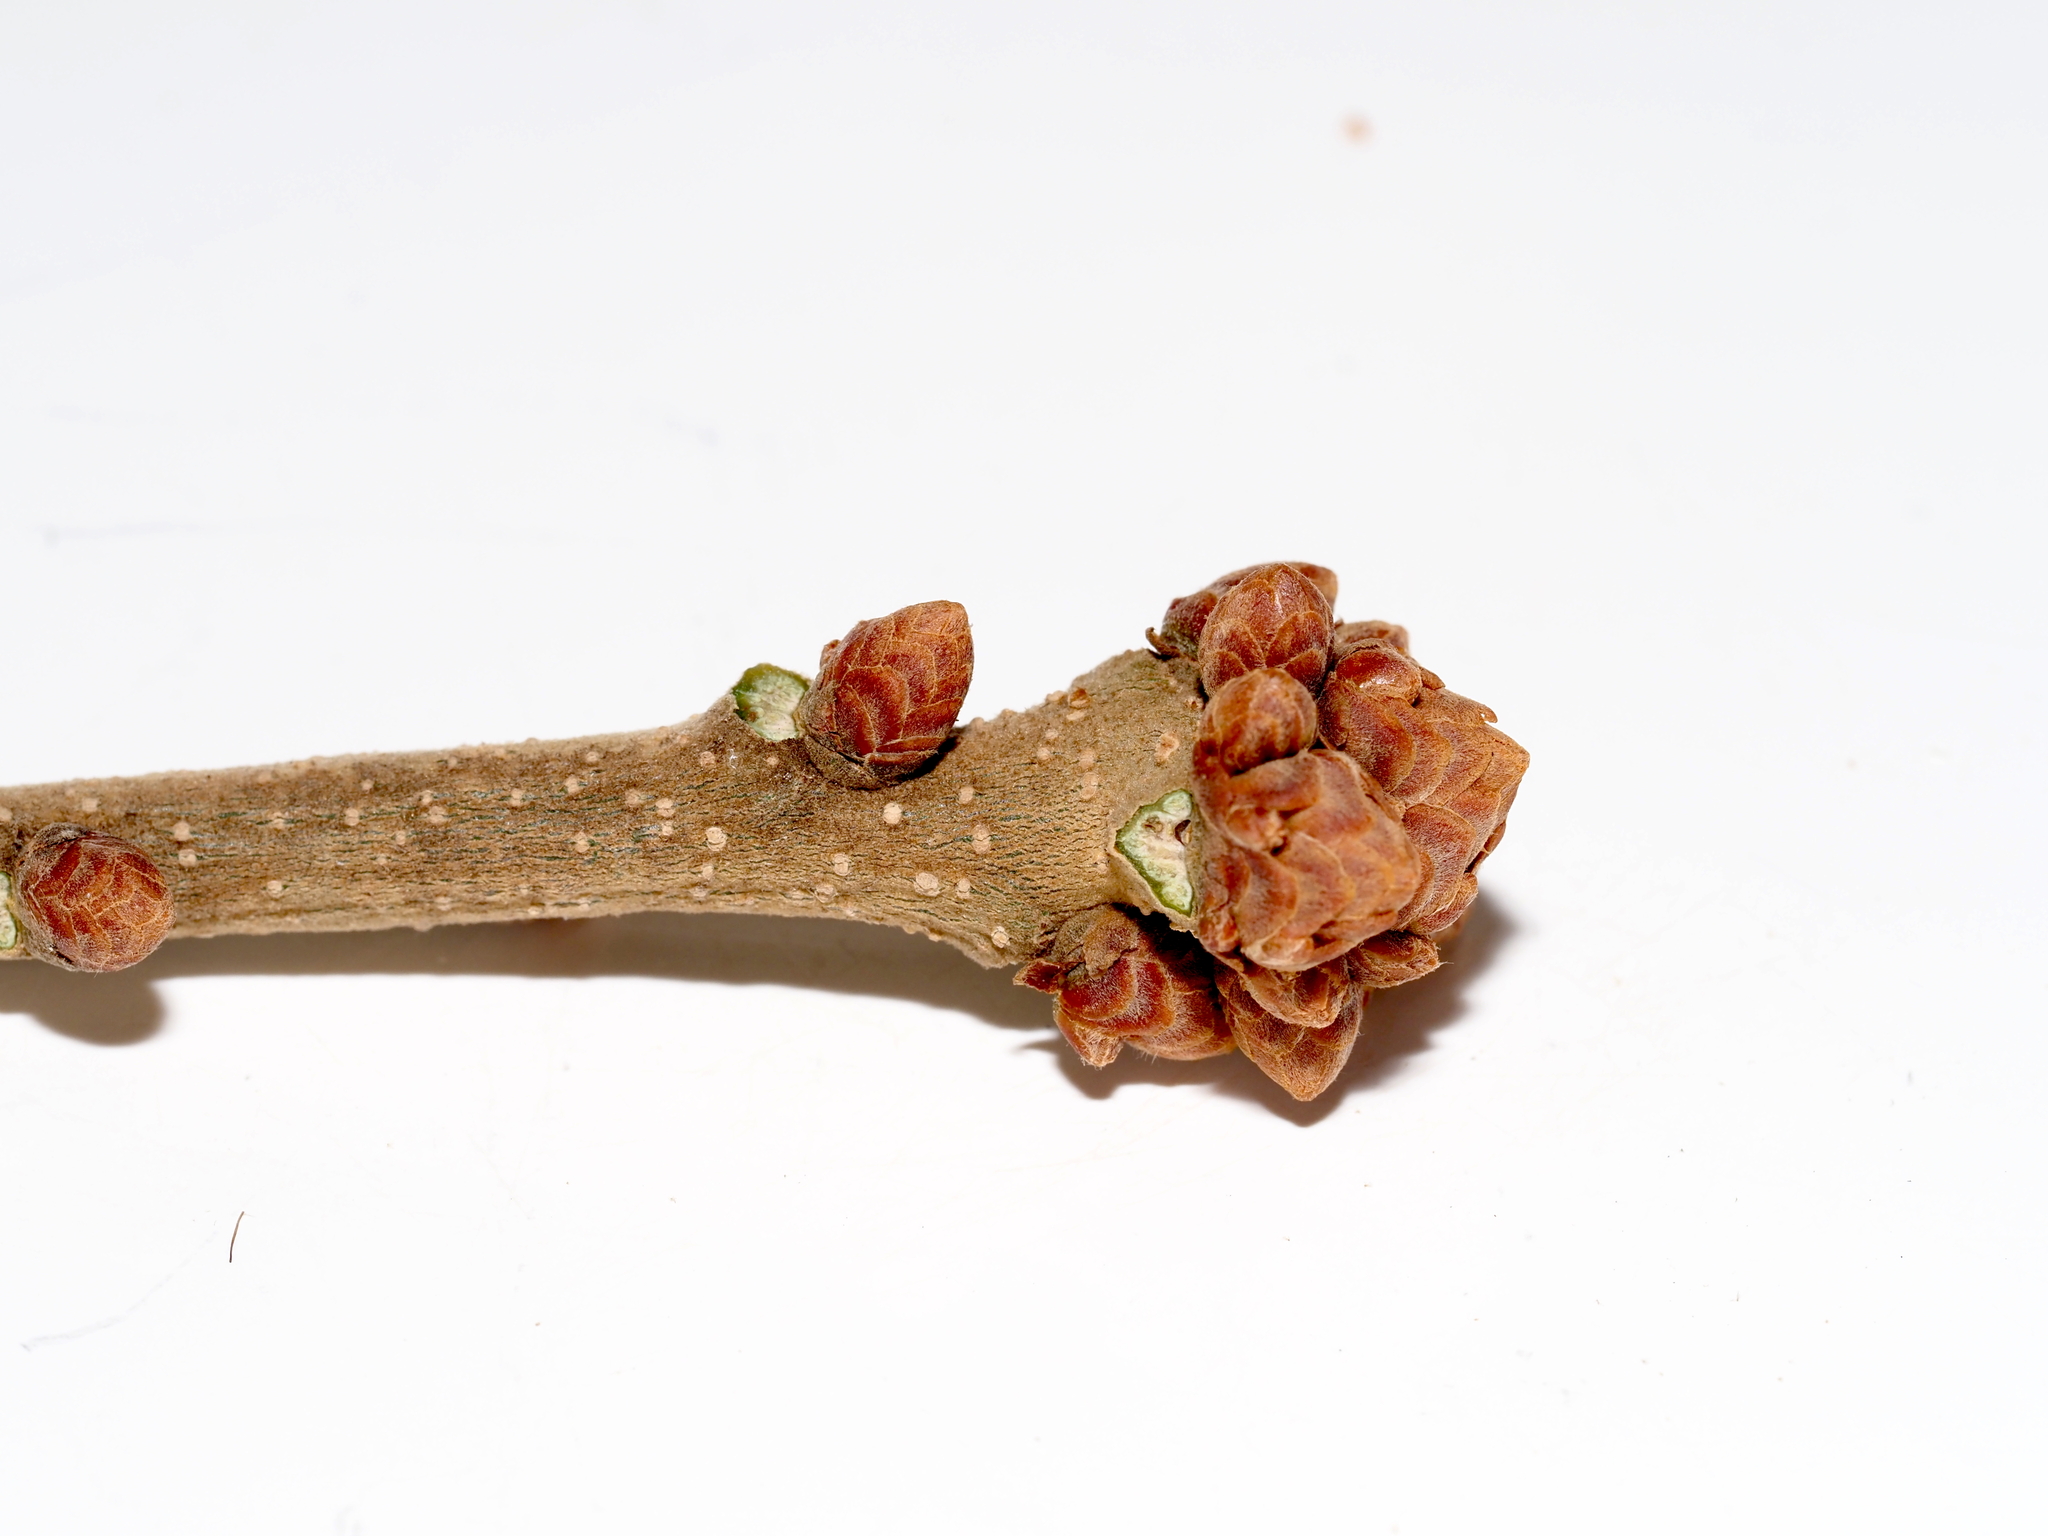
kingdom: Plantae
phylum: Tracheophyta
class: Magnoliopsida
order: Fagales
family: Fagaceae
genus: Quercus
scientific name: Quercus stellata
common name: Post oak
